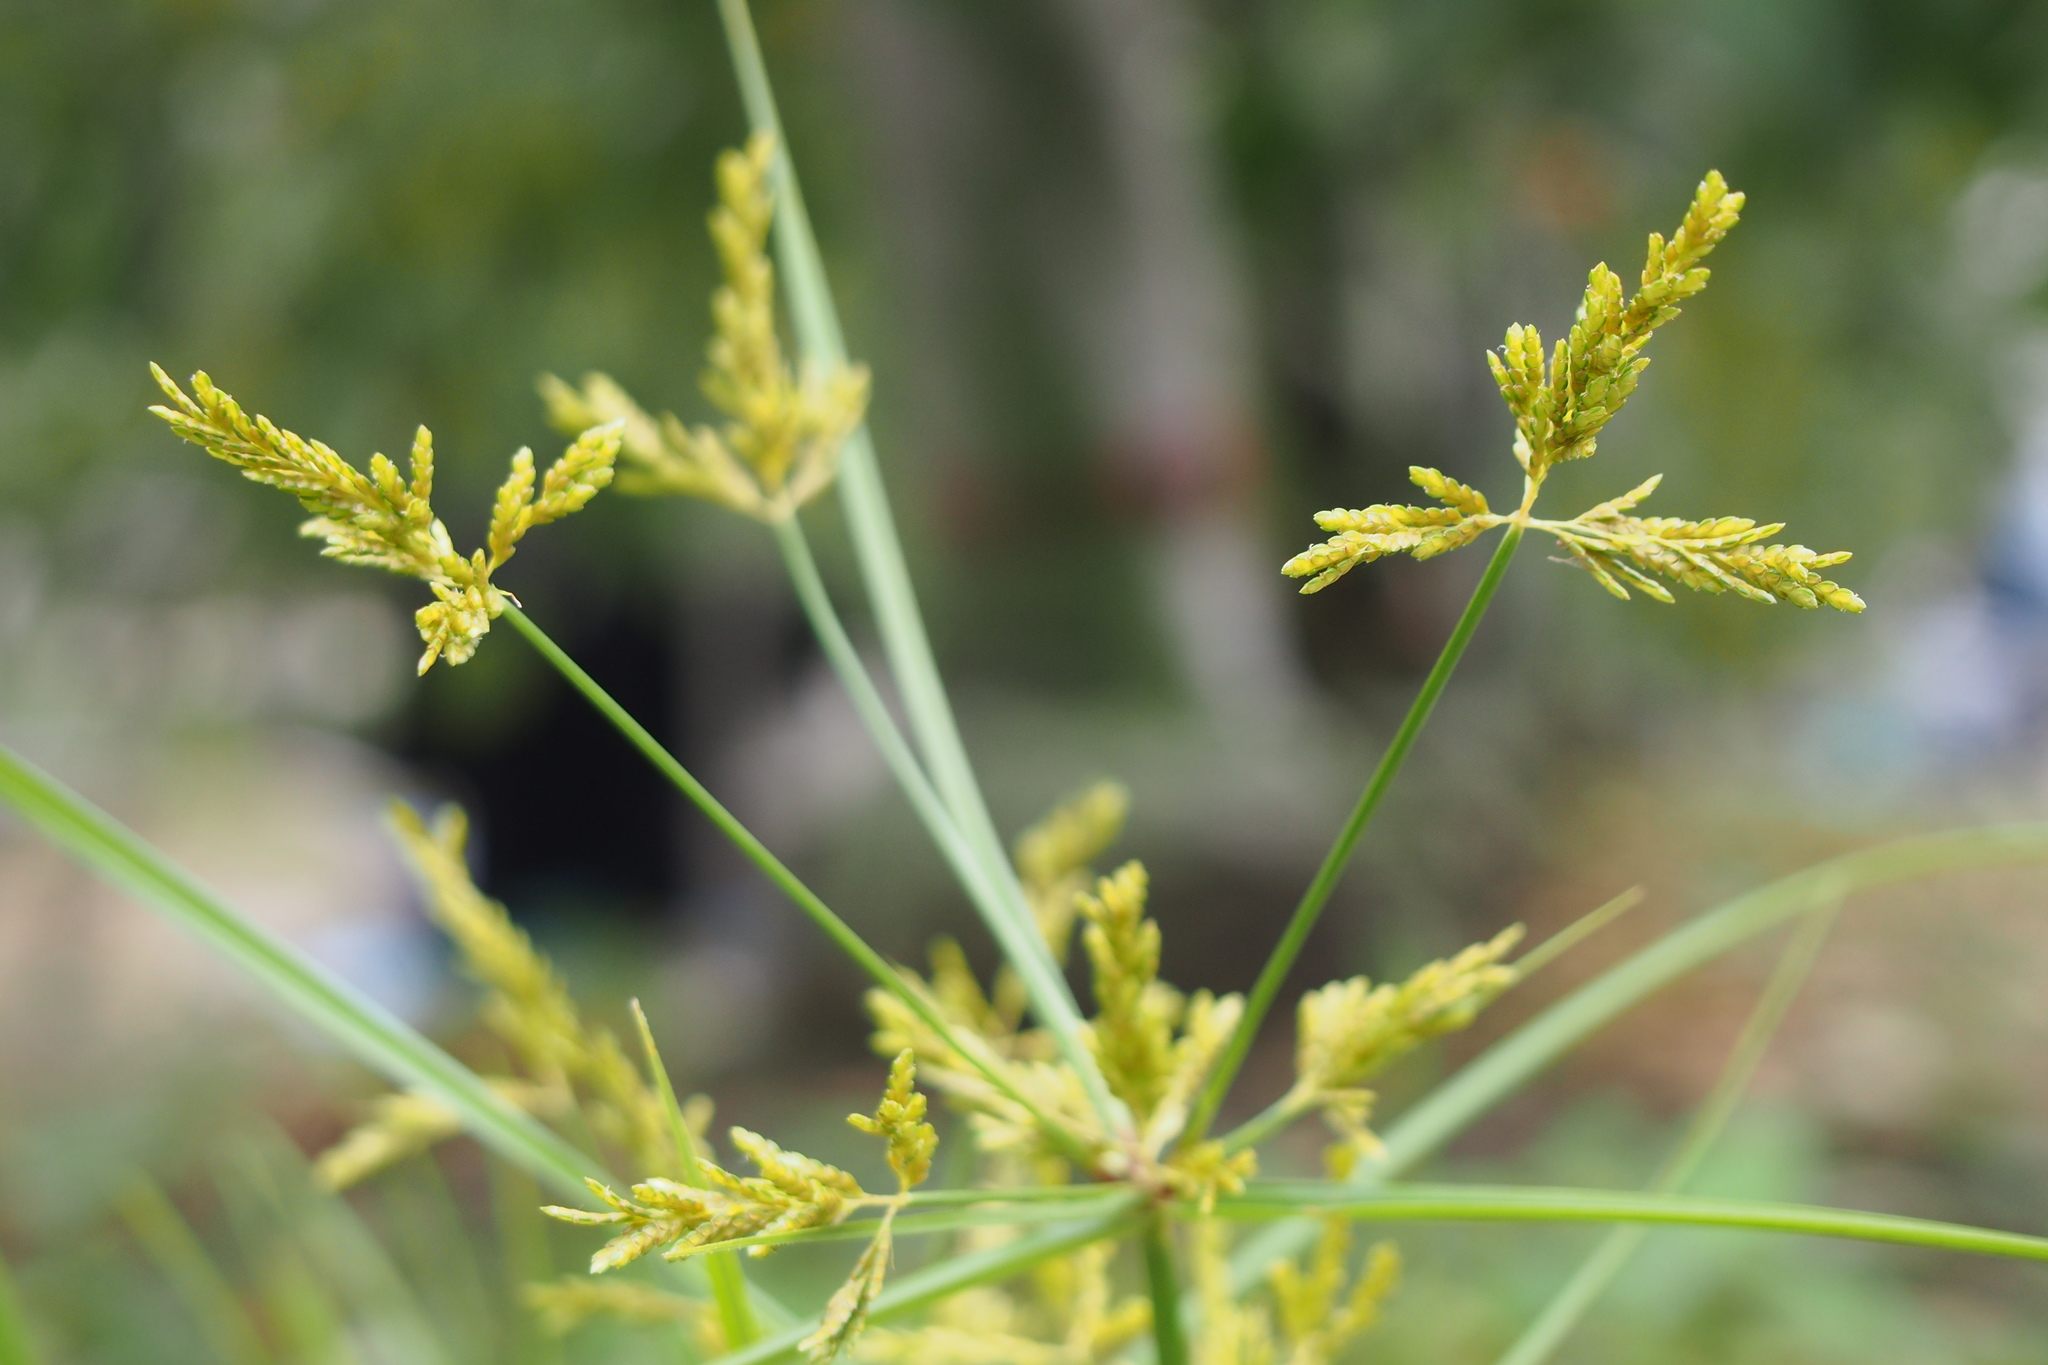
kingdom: Plantae
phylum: Tracheophyta
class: Liliopsida
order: Poales
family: Cyperaceae
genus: Cyperus
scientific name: Cyperus iria
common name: Ricefield flatsedge
